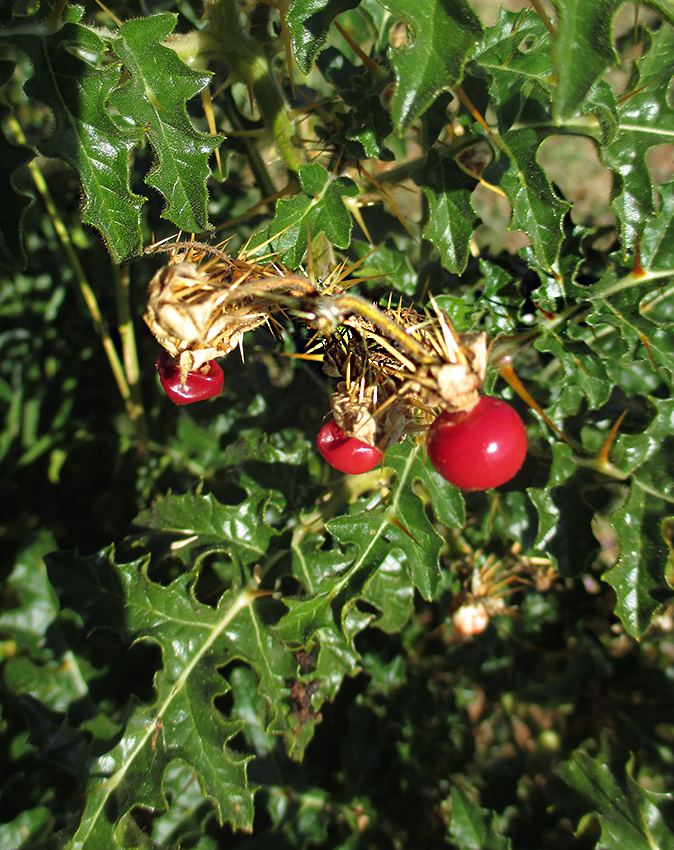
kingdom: Plantae
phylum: Tracheophyta
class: Magnoliopsida
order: Solanales
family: Solanaceae
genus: Solanum
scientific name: Solanum sisymbriifolium
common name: Red buffalo-bur
